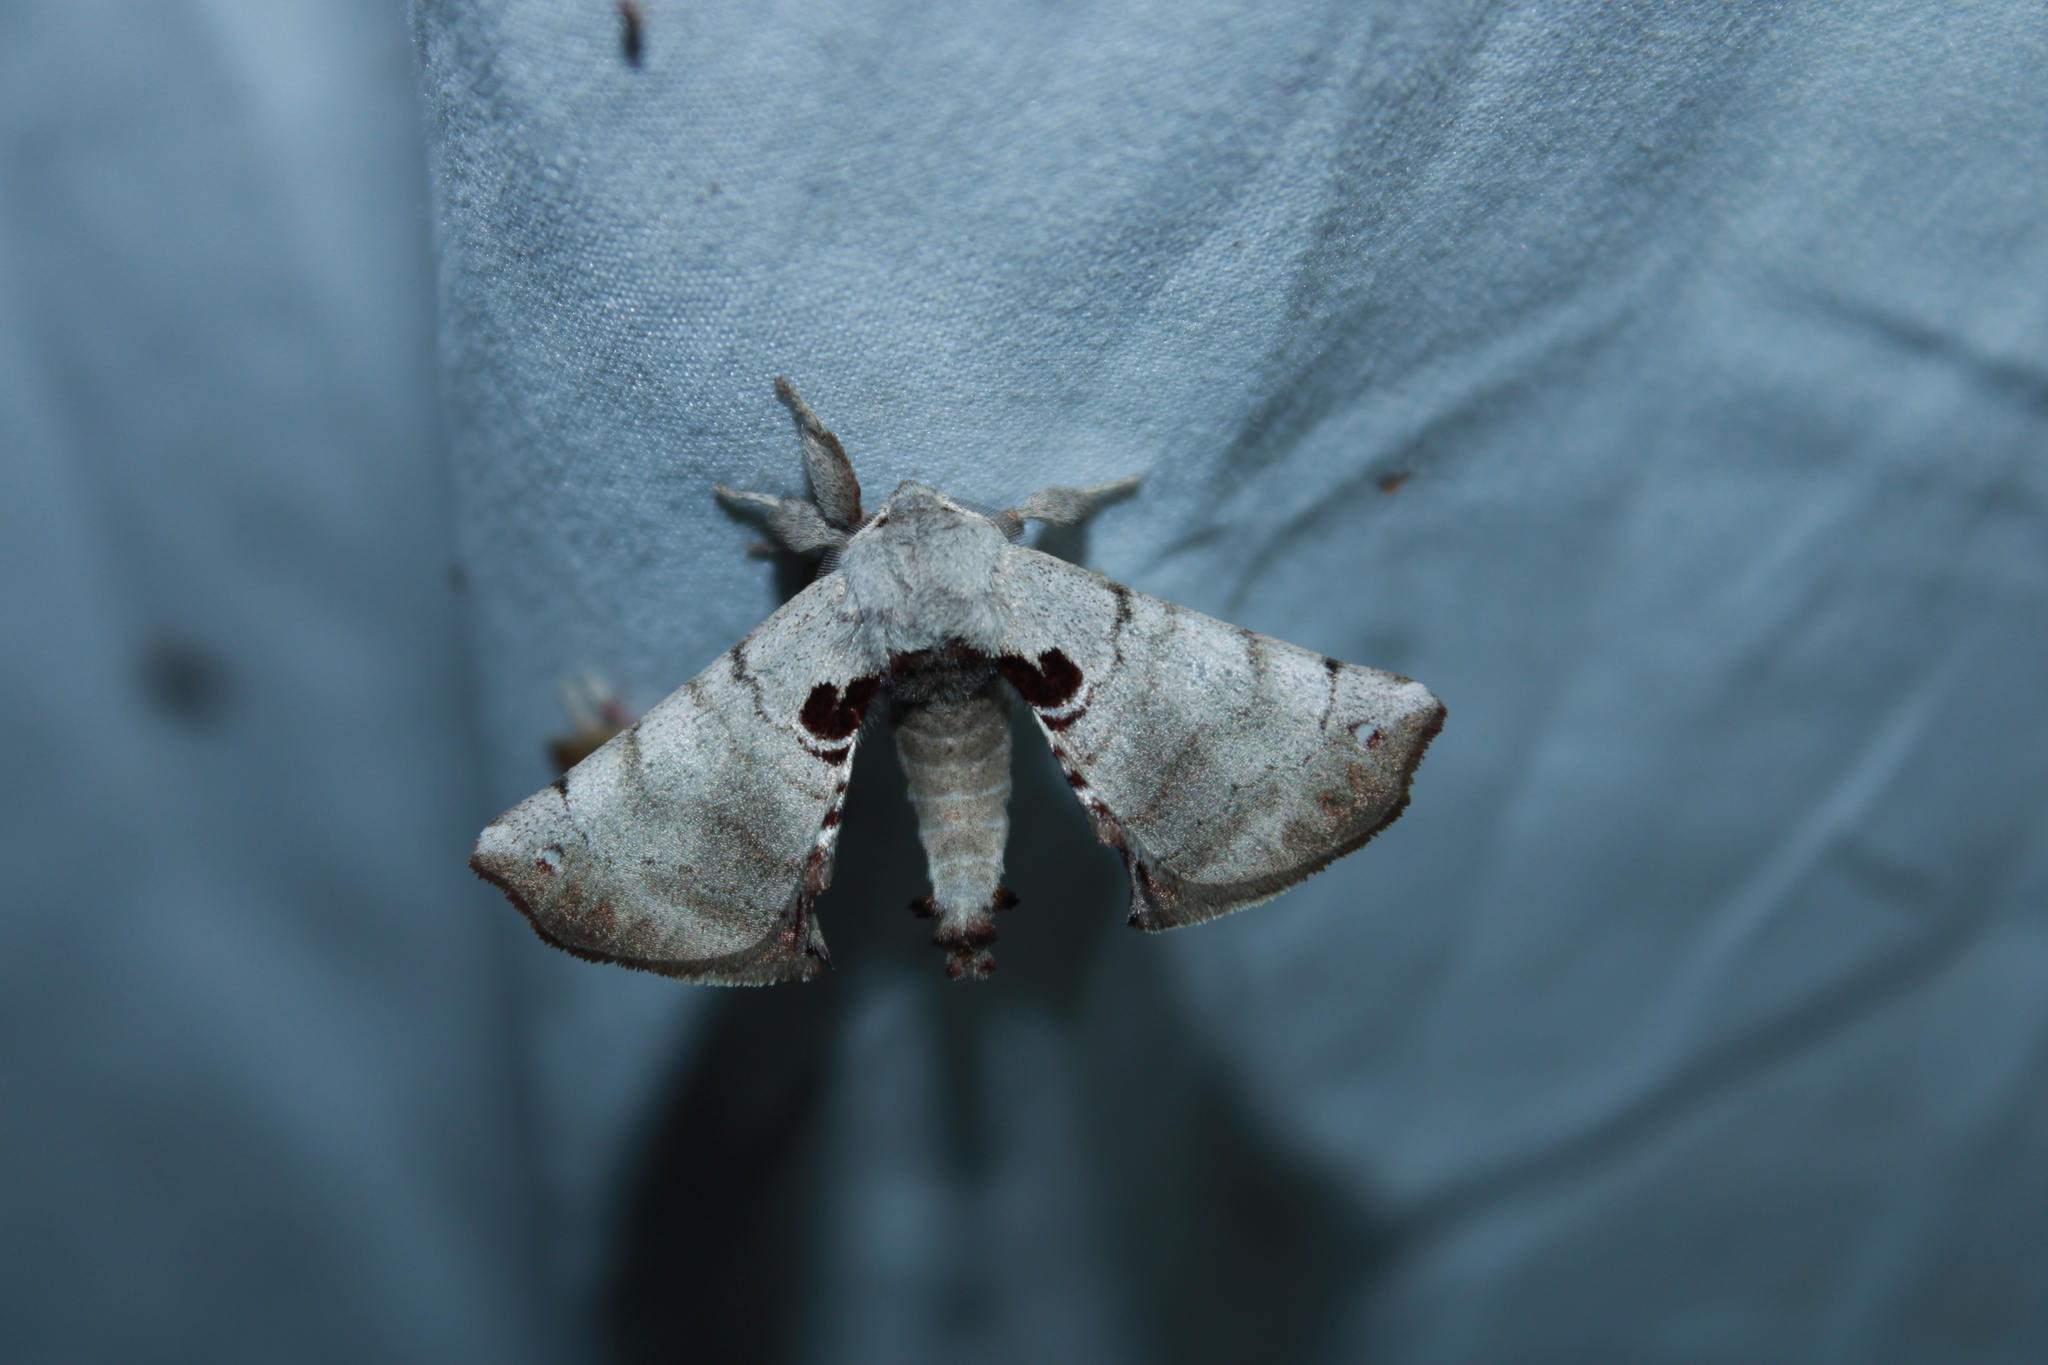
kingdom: Animalia
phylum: Arthropoda
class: Insecta
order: Lepidoptera
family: Apatelodidae
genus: Hygrochroa
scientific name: Hygrochroa Apatelodes torrefacta
